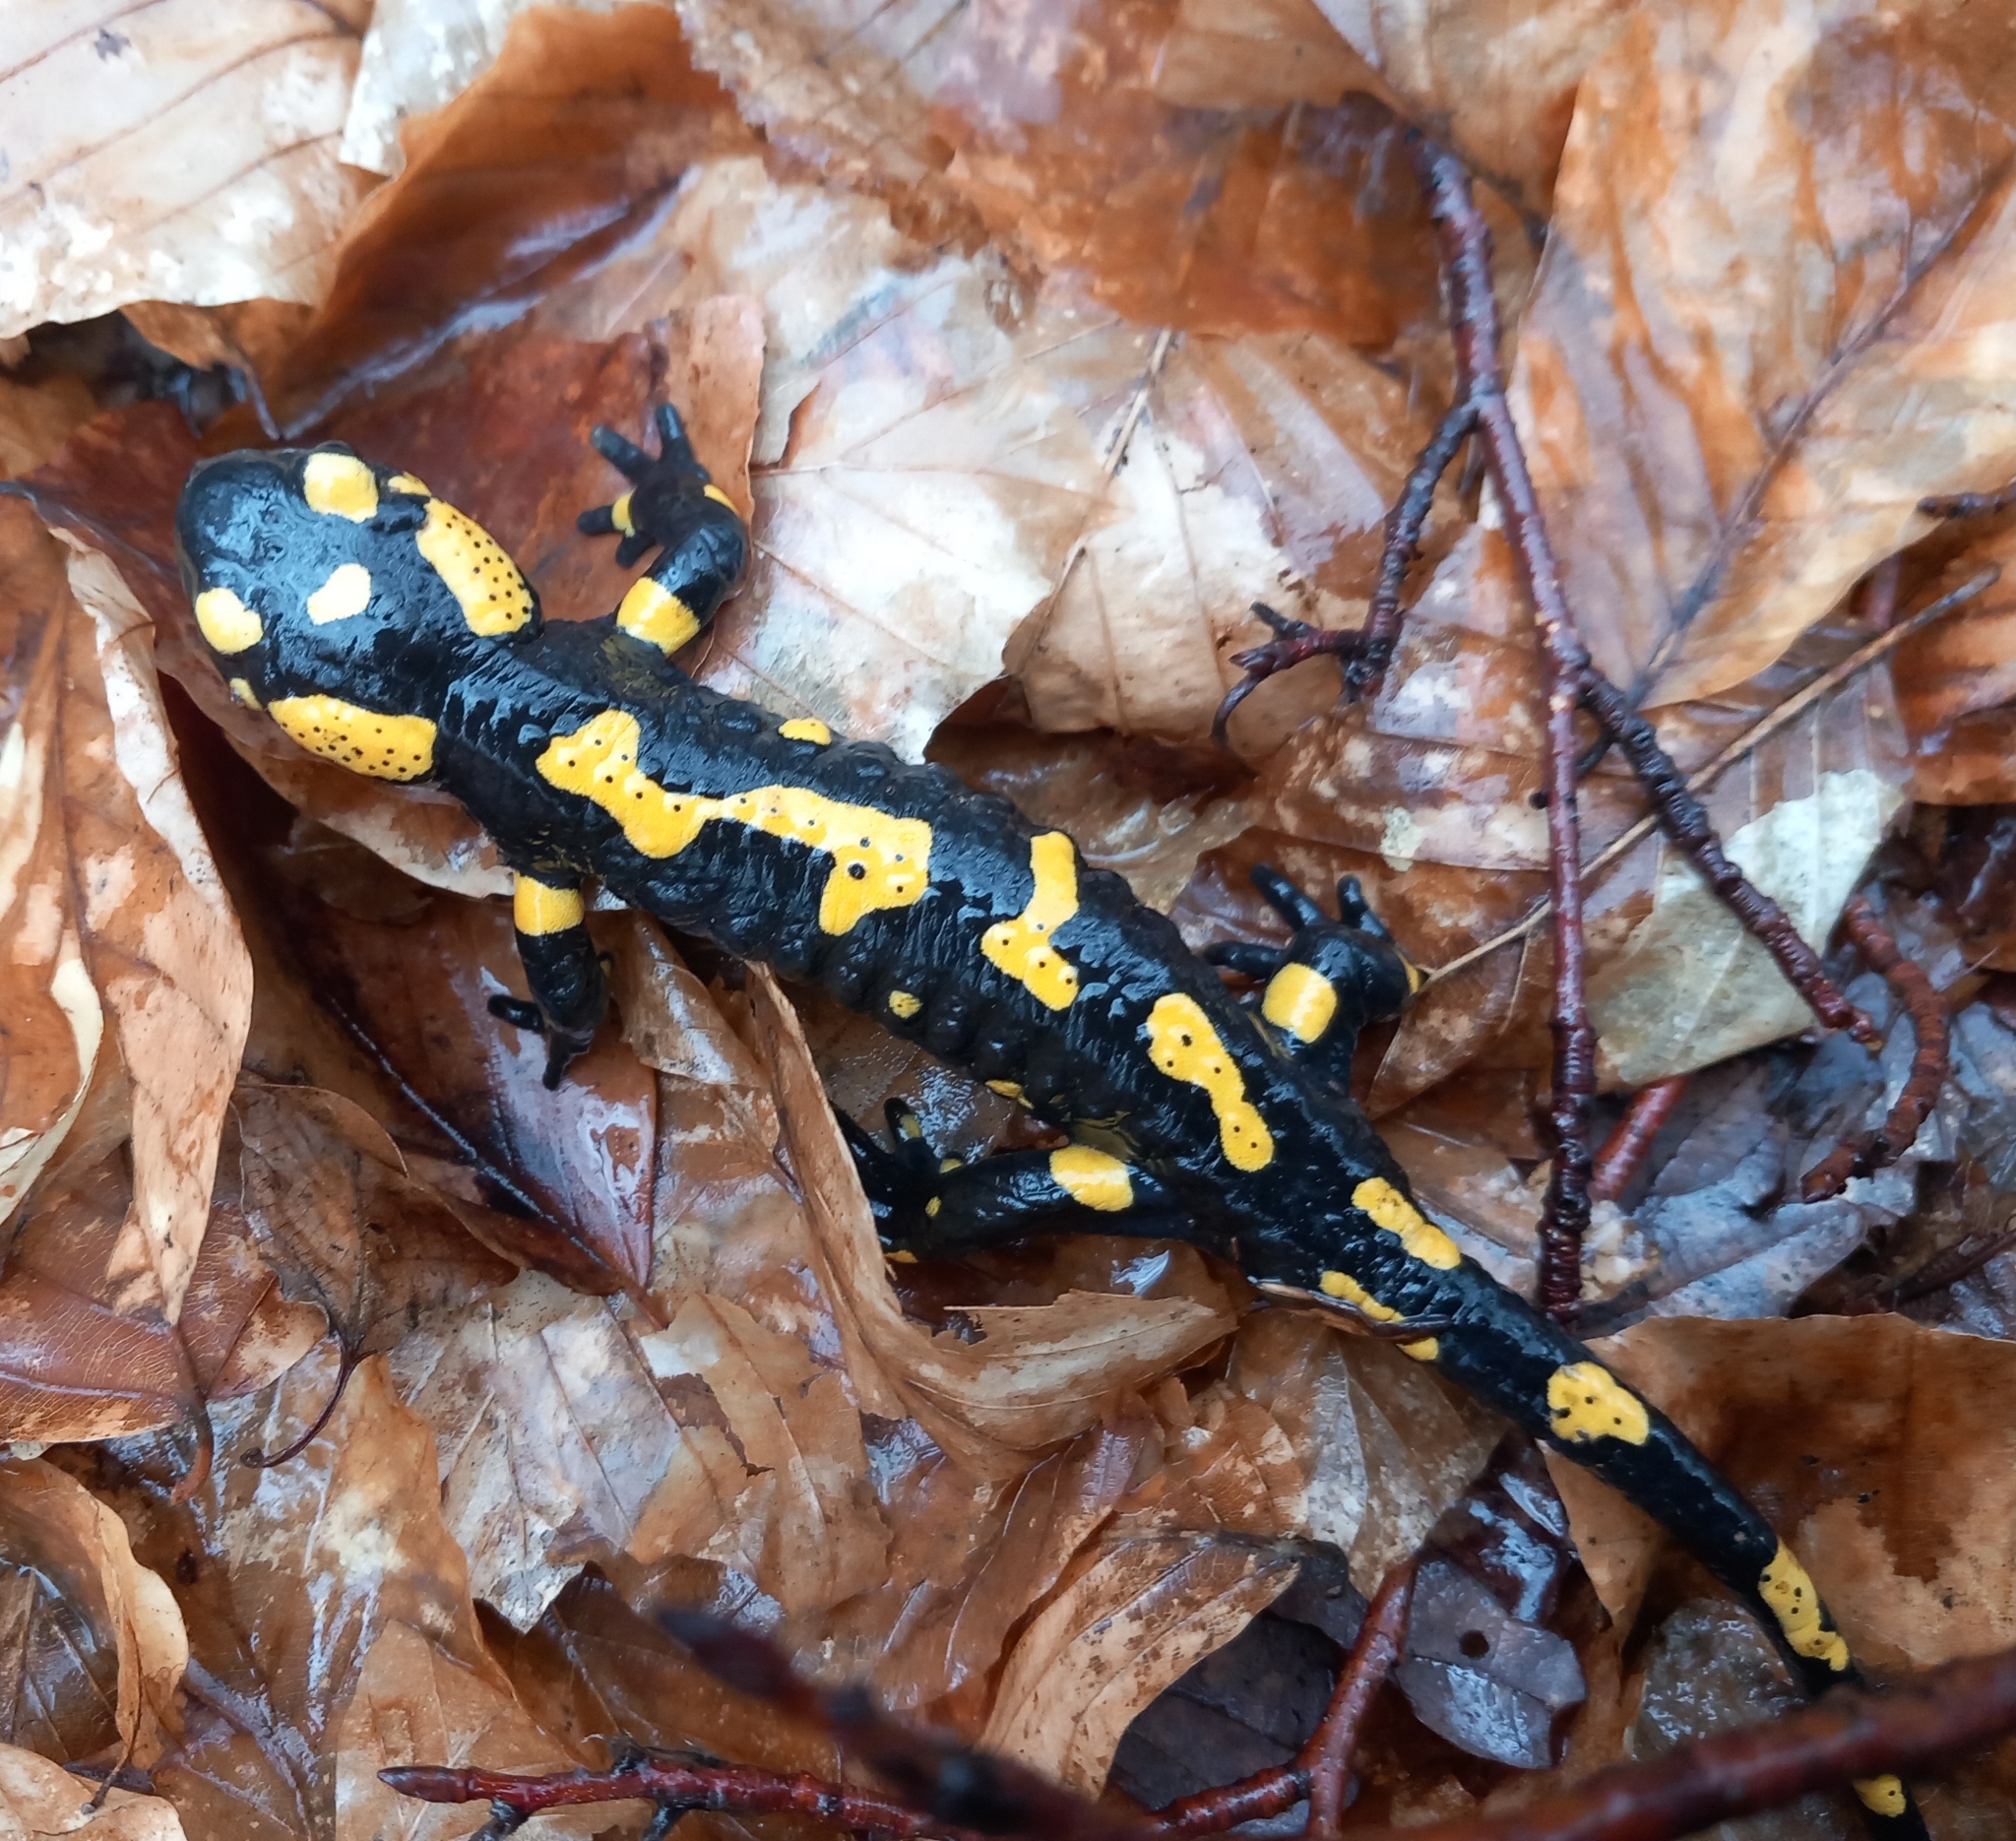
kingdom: Animalia
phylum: Chordata
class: Amphibia
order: Caudata
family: Salamandridae
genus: Salamandra
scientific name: Salamandra salamandra
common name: Fire salamander
